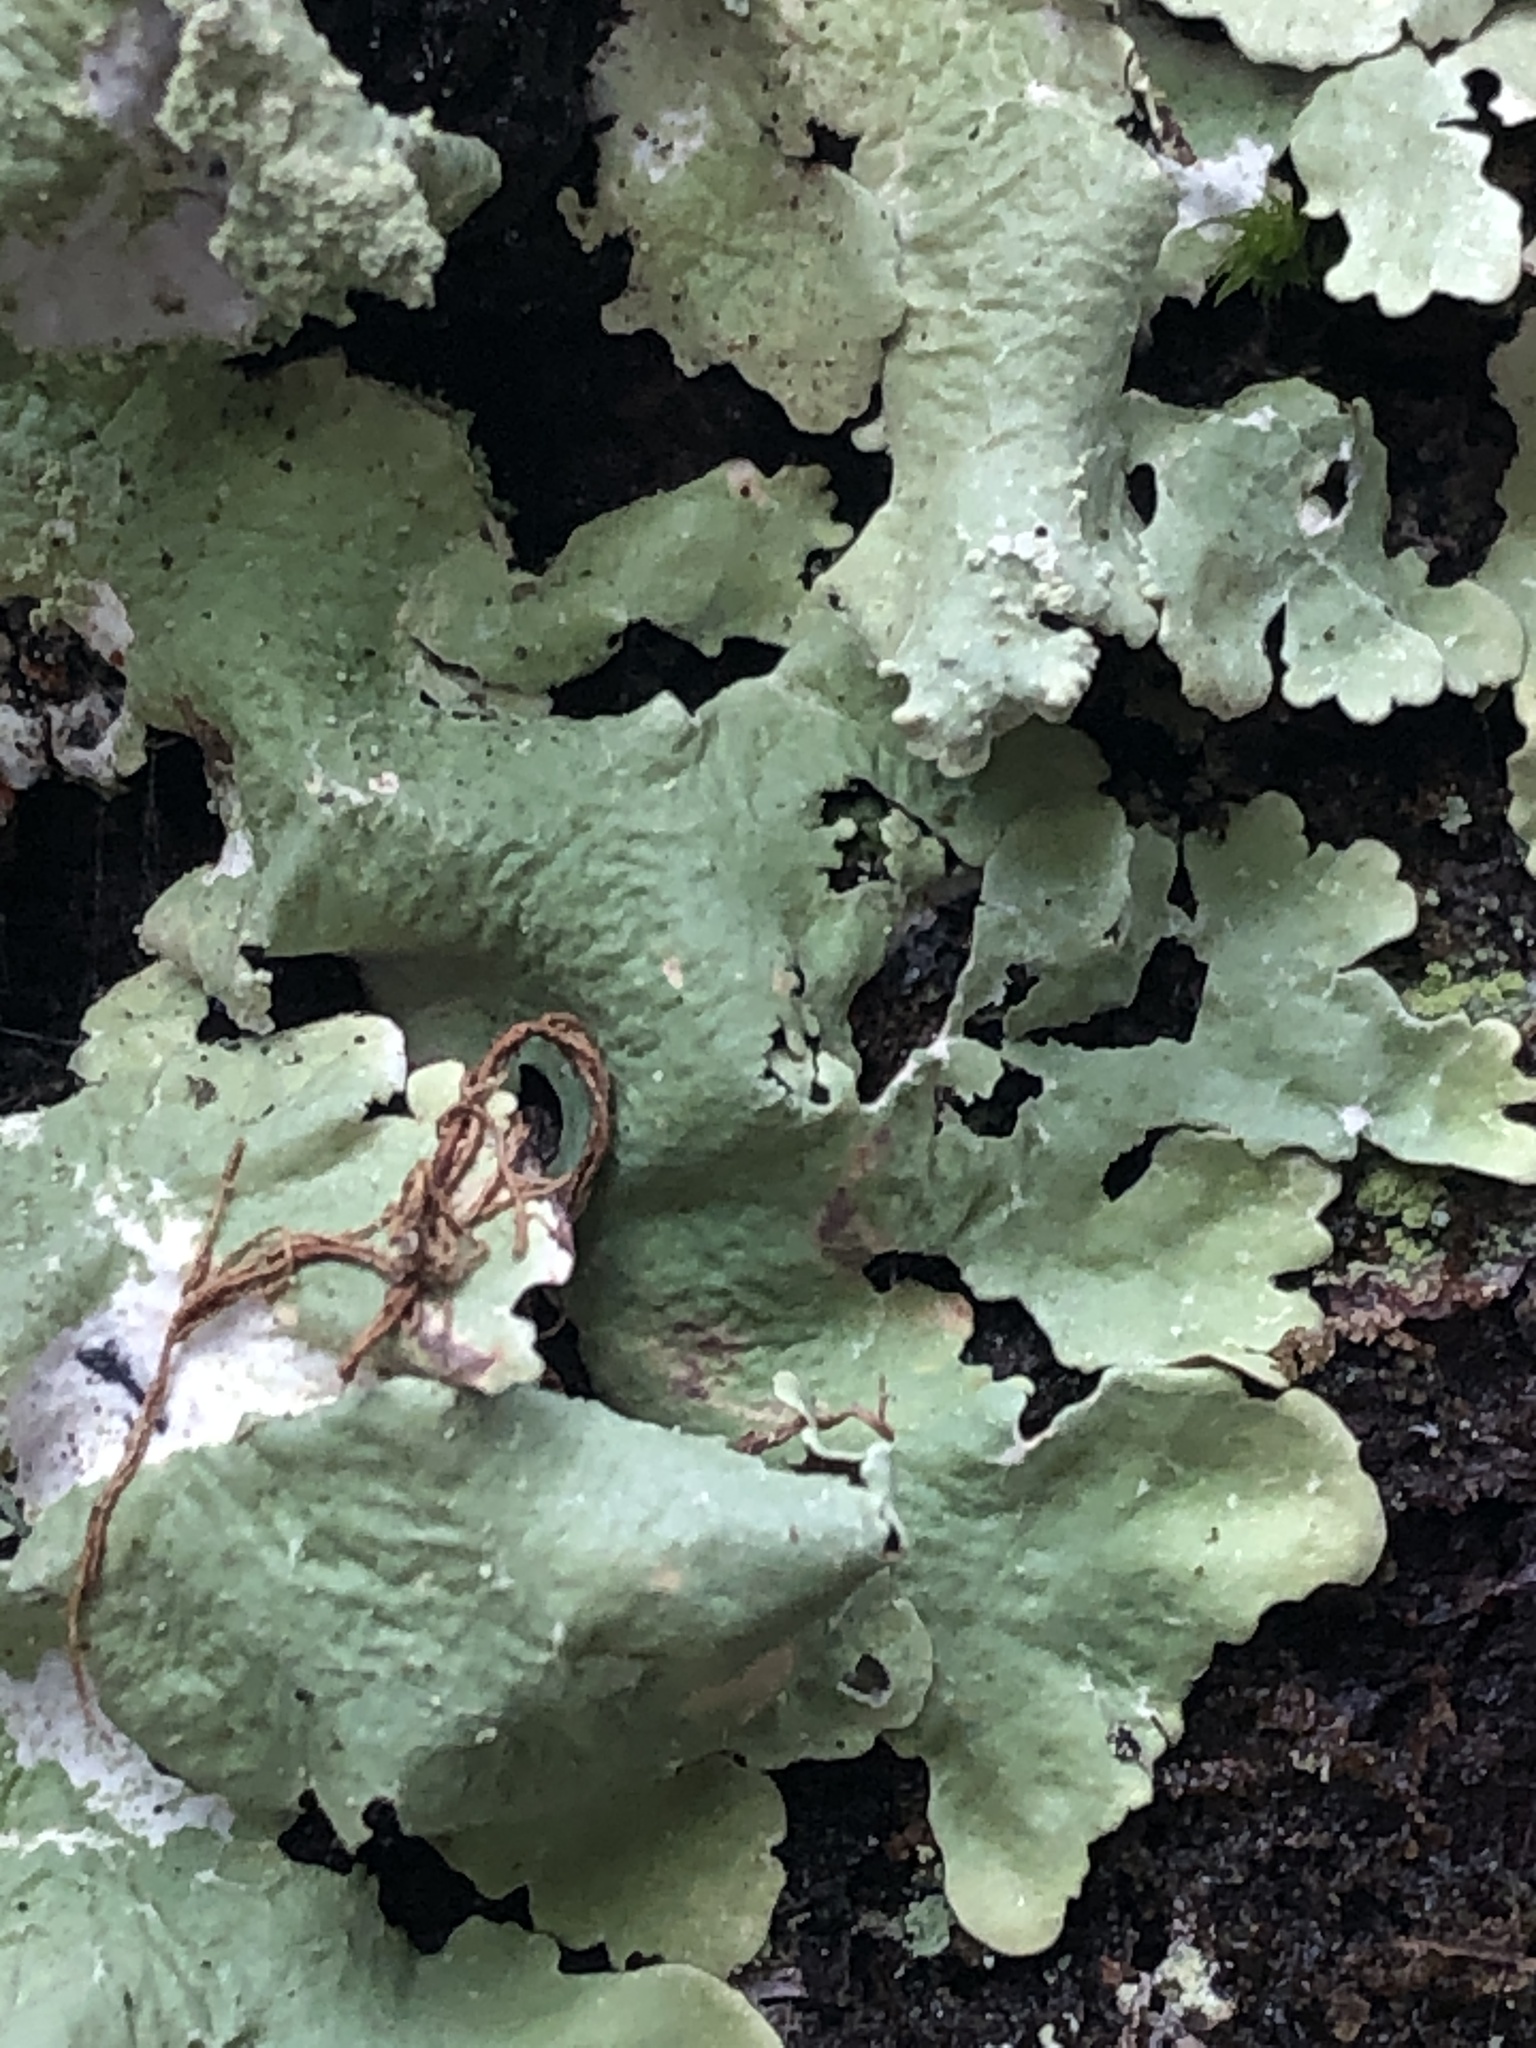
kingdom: Fungi
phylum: Ascomycota
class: Lecanoromycetes
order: Lecanorales
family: Parmeliaceae
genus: Flavoparmelia
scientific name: Flavoparmelia caperata
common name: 40-mile per hour lichen
